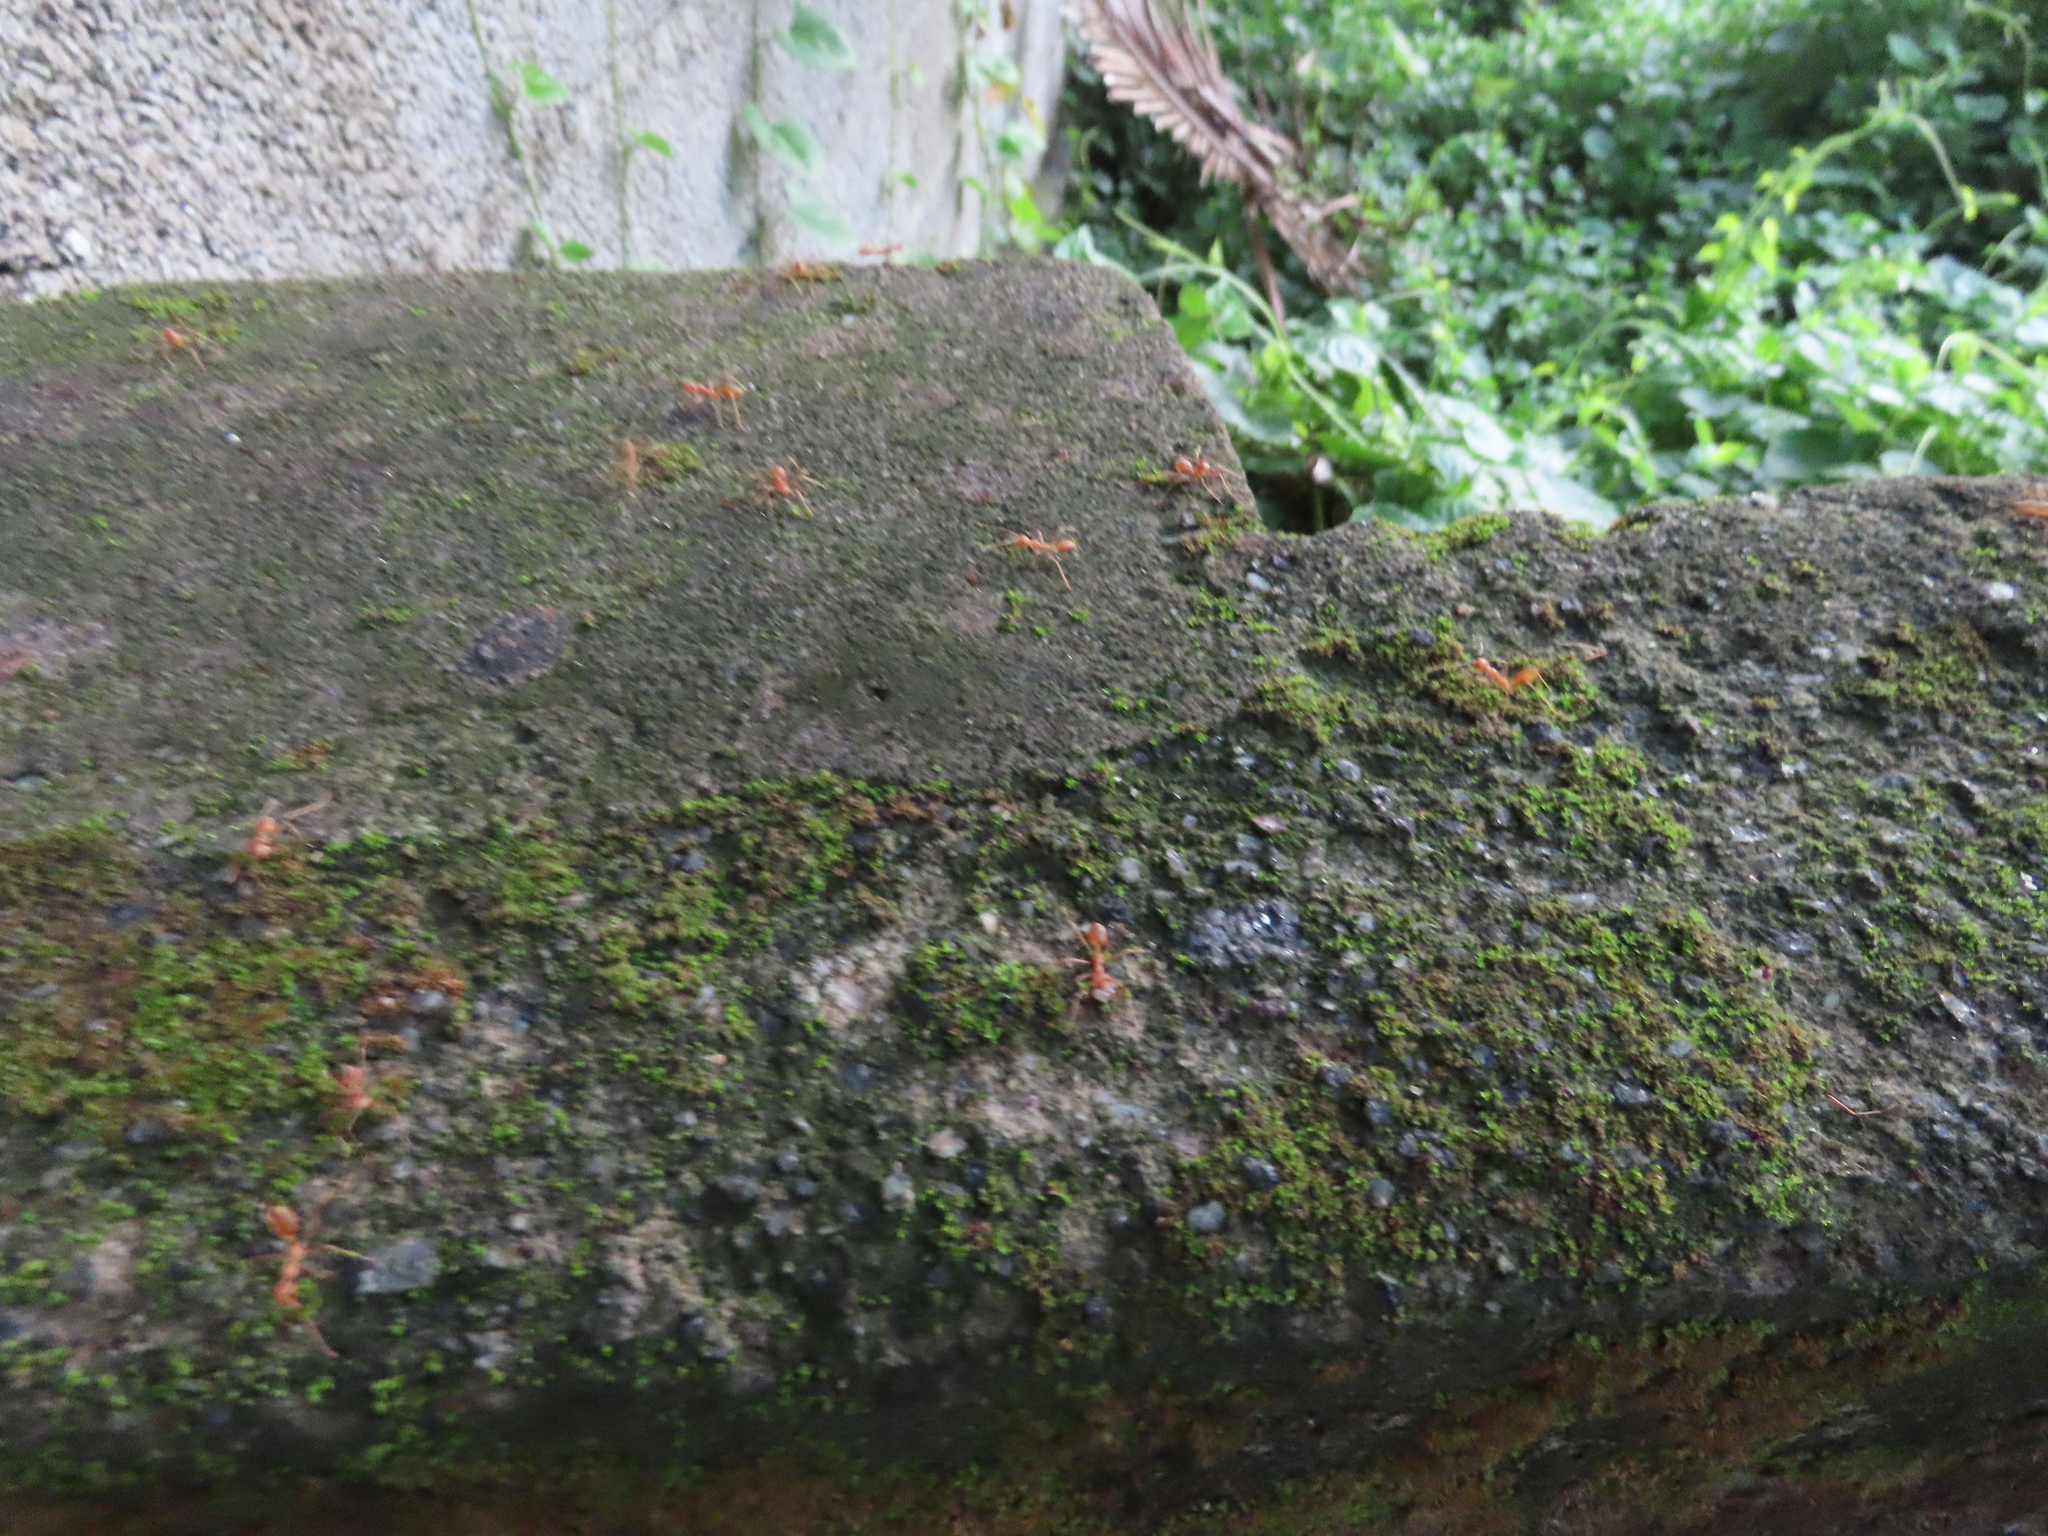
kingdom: Animalia
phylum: Arthropoda
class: Insecta
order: Hymenoptera
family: Formicidae
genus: Oecophylla
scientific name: Oecophylla smaragdina
